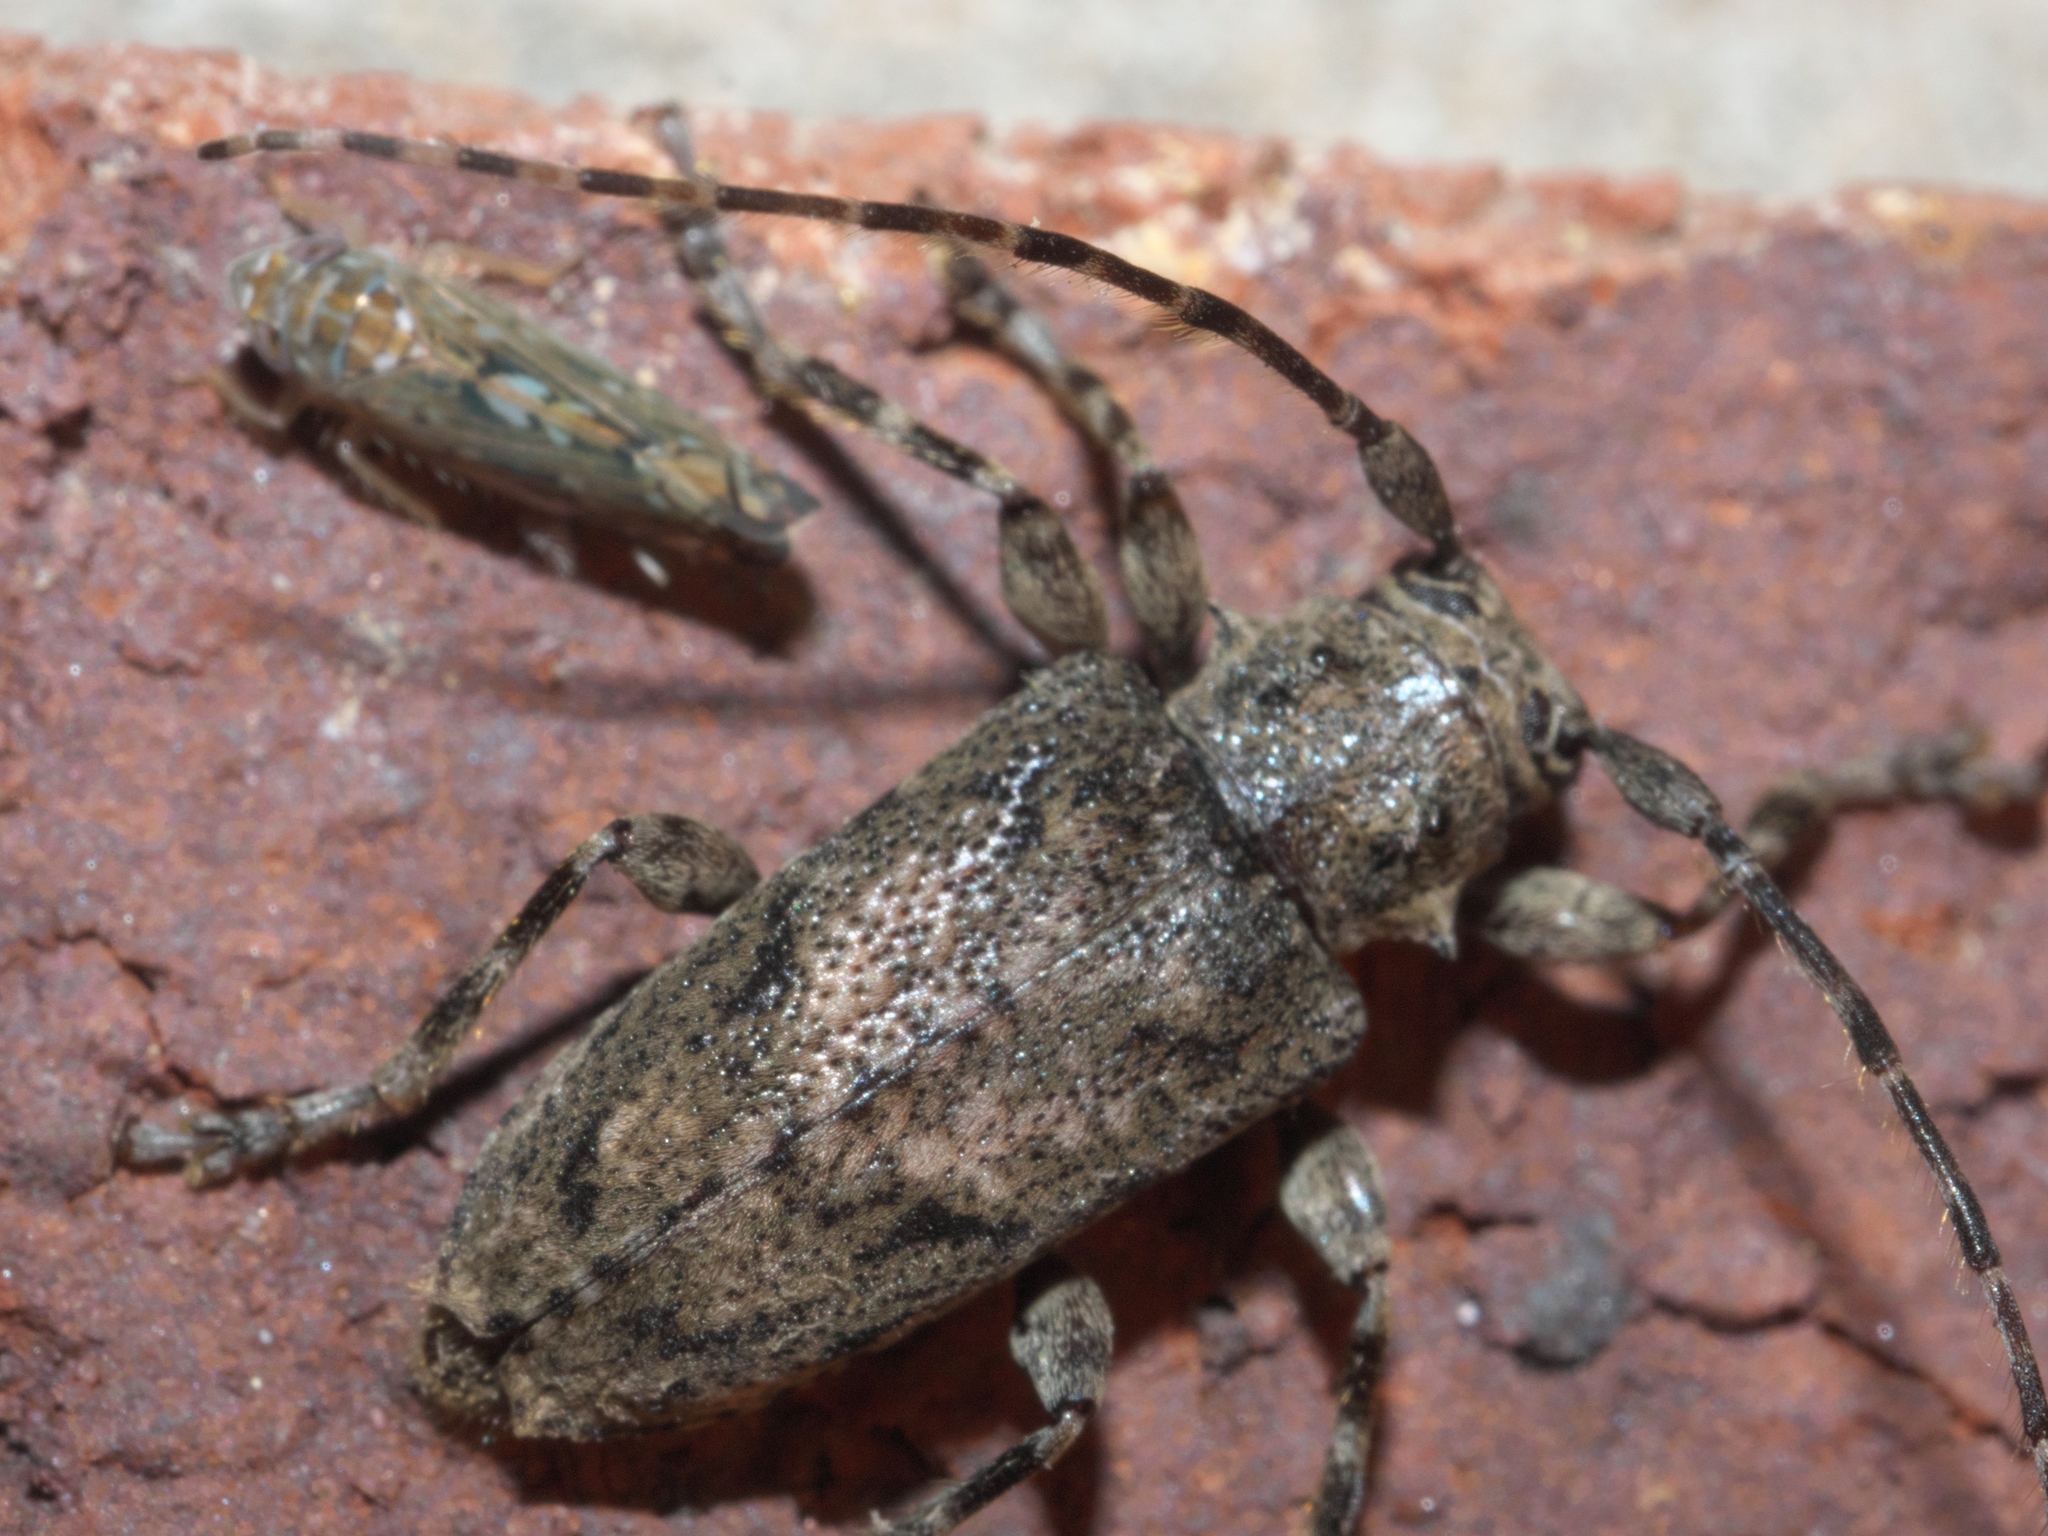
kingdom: Animalia
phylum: Arthropoda
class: Insecta
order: Coleoptera
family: Cerambycidae
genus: Aegomorphus
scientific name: Aegomorphus modestus
